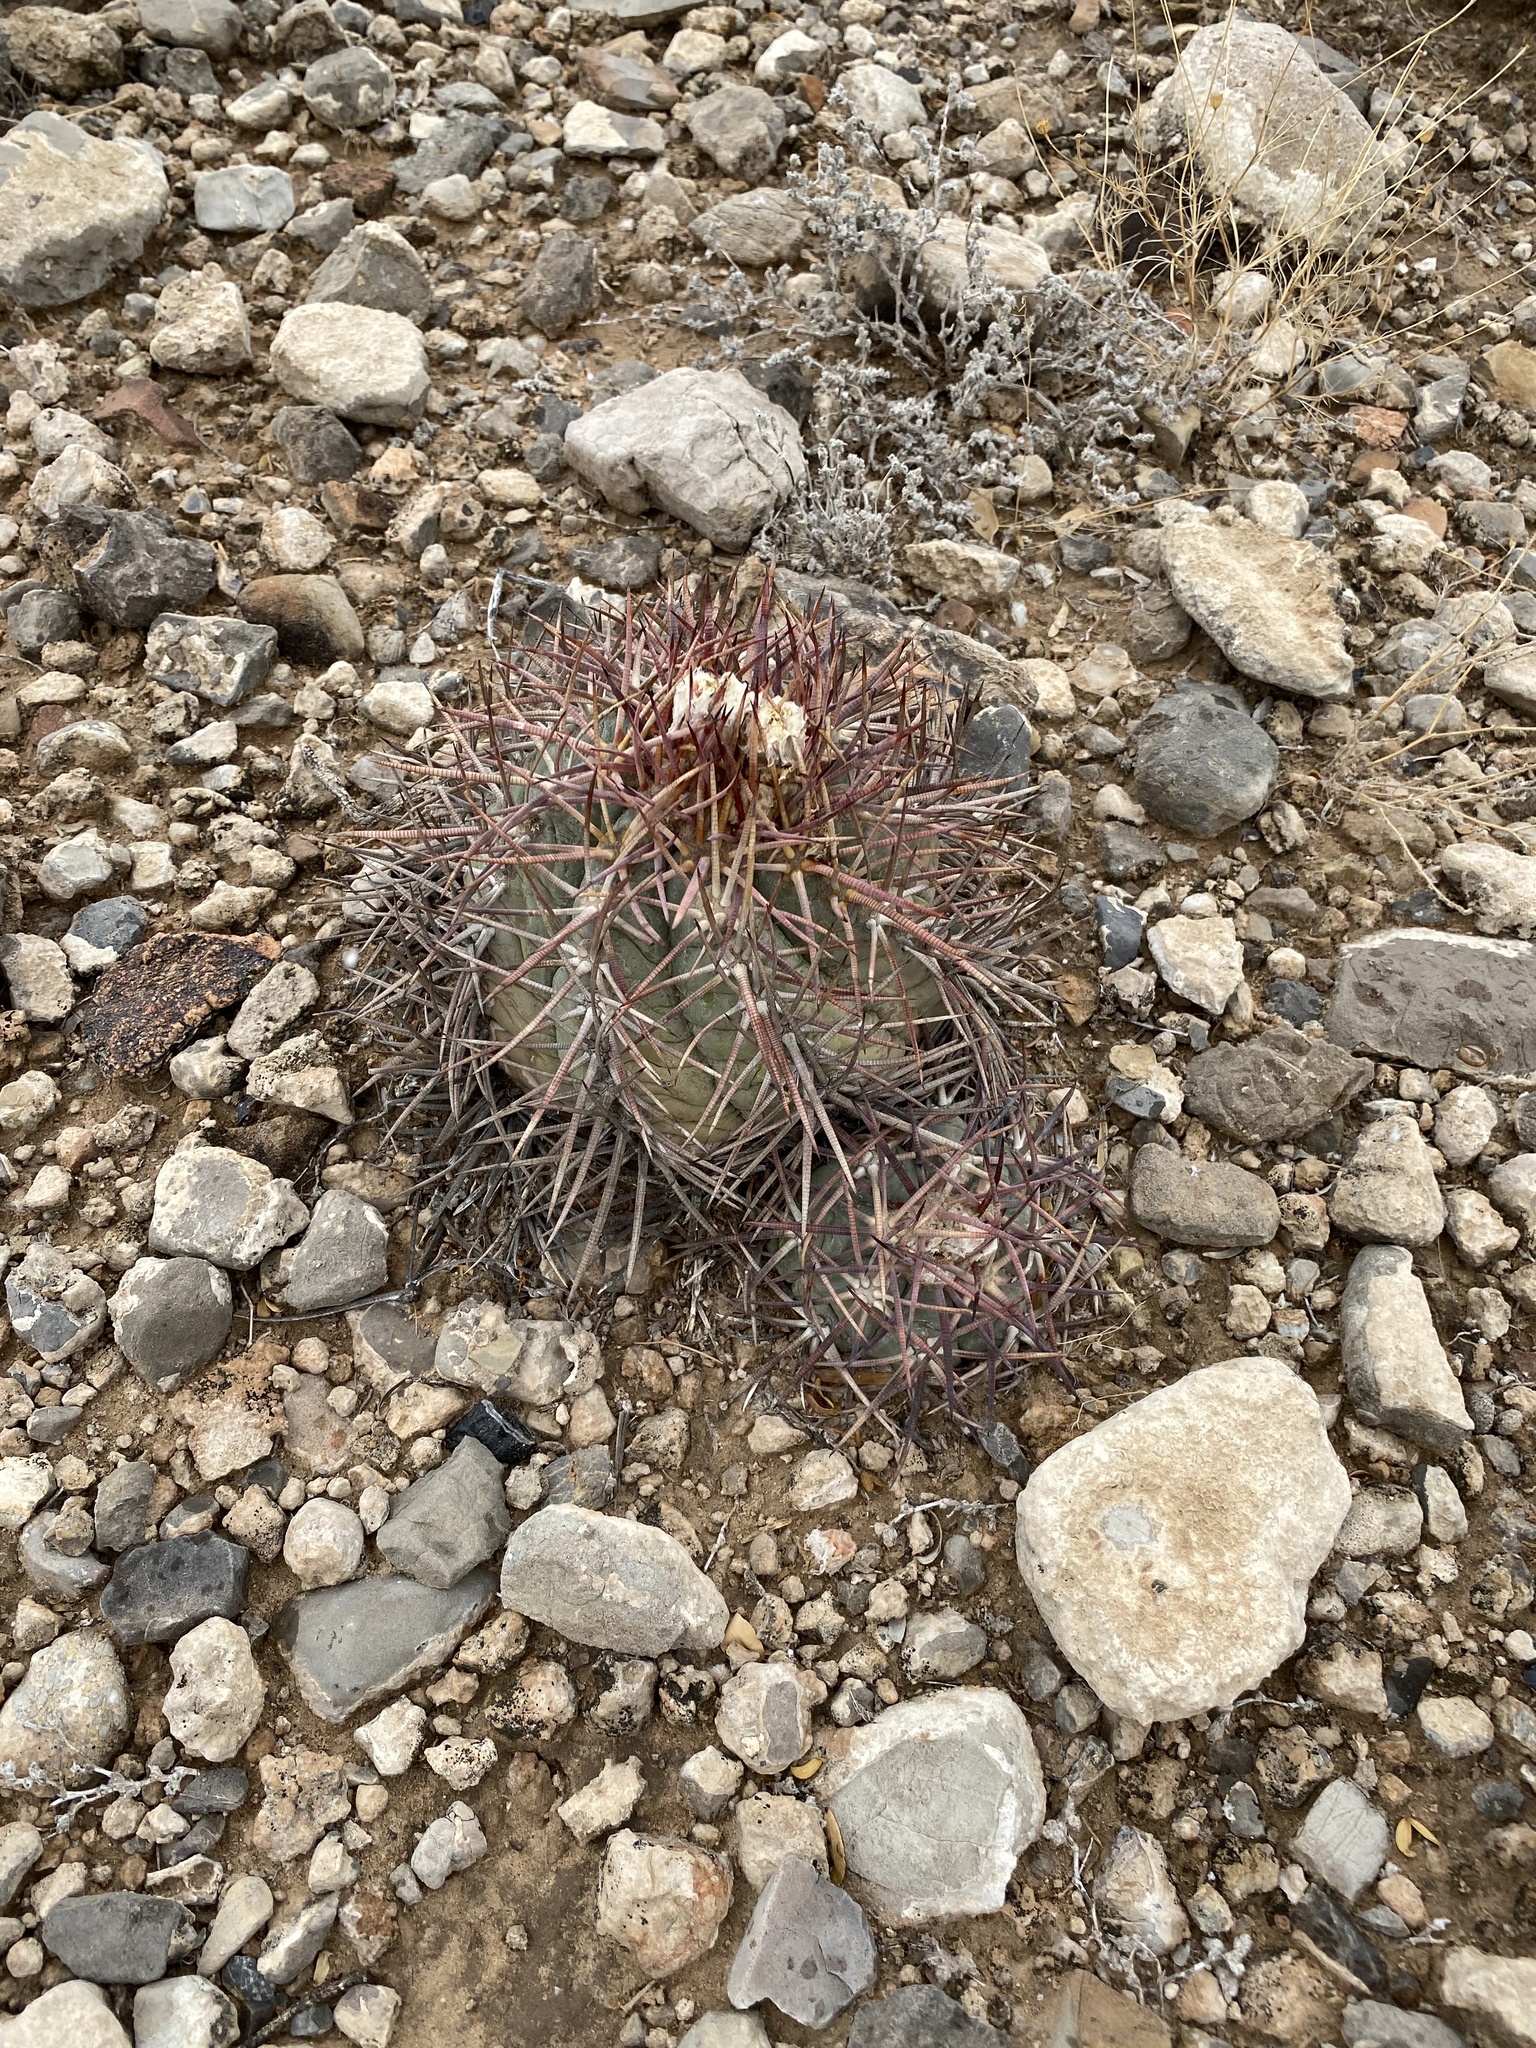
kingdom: Plantae
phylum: Tracheophyta
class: Magnoliopsida
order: Caryophyllales
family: Cactaceae
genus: Echinocactus
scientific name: Echinocactus horizonthalonius
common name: Devilshead
